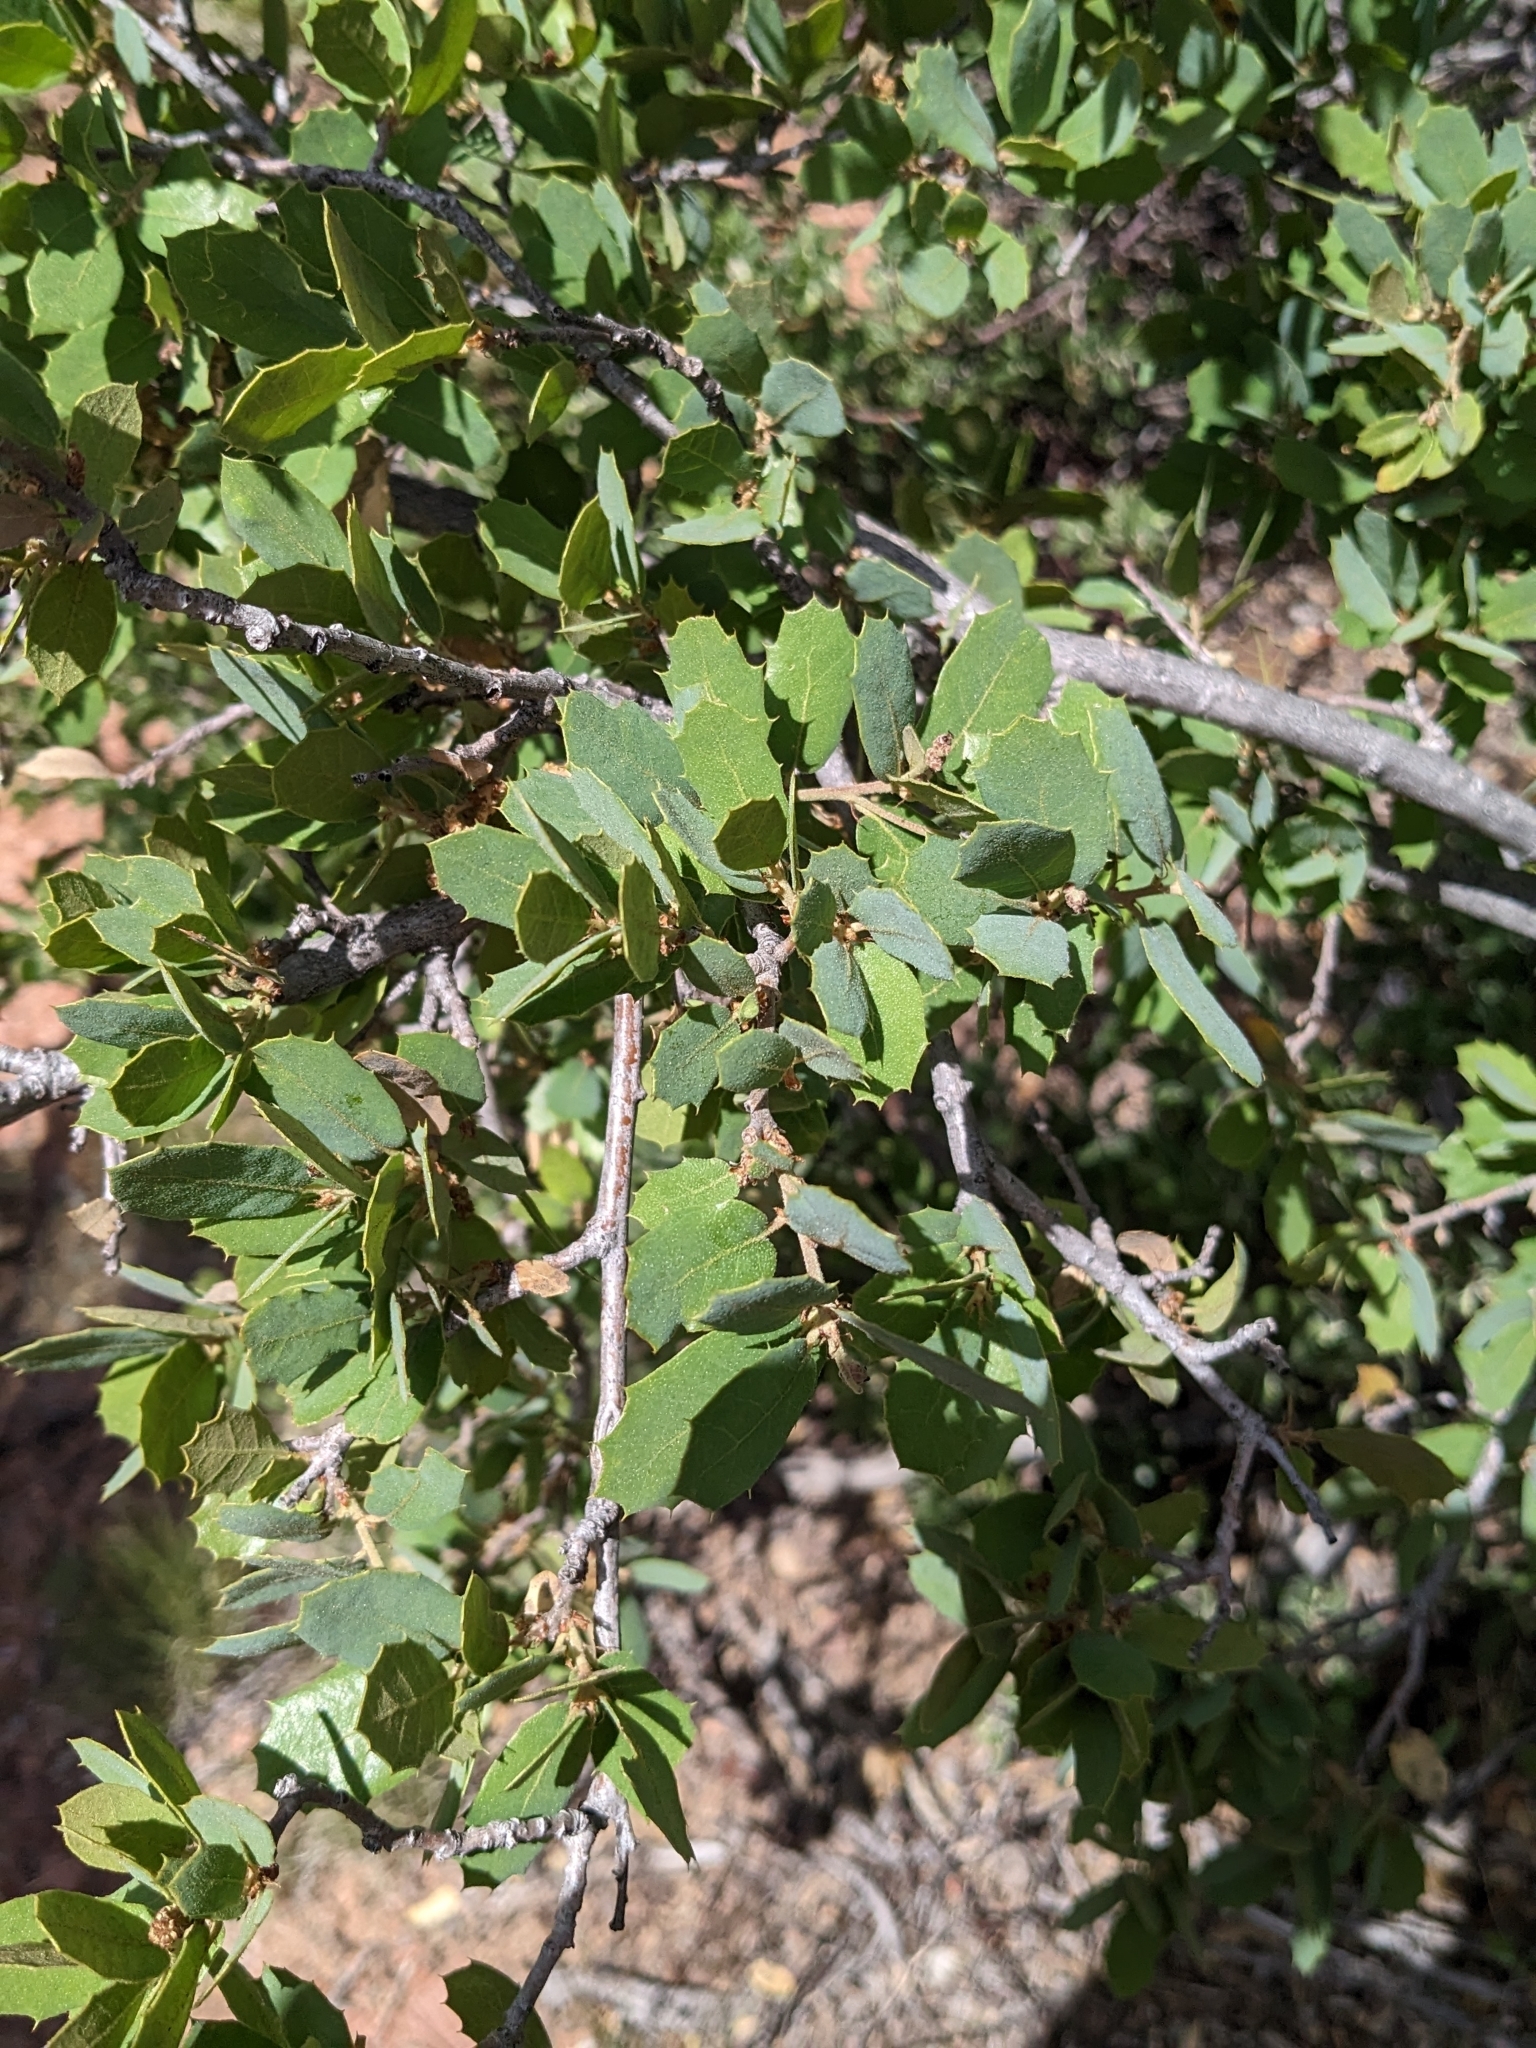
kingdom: Plantae
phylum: Tracheophyta
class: Magnoliopsida
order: Fagales
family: Fagaceae
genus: Quercus
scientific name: Quercus turbinella
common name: Sonoran scrub oak
